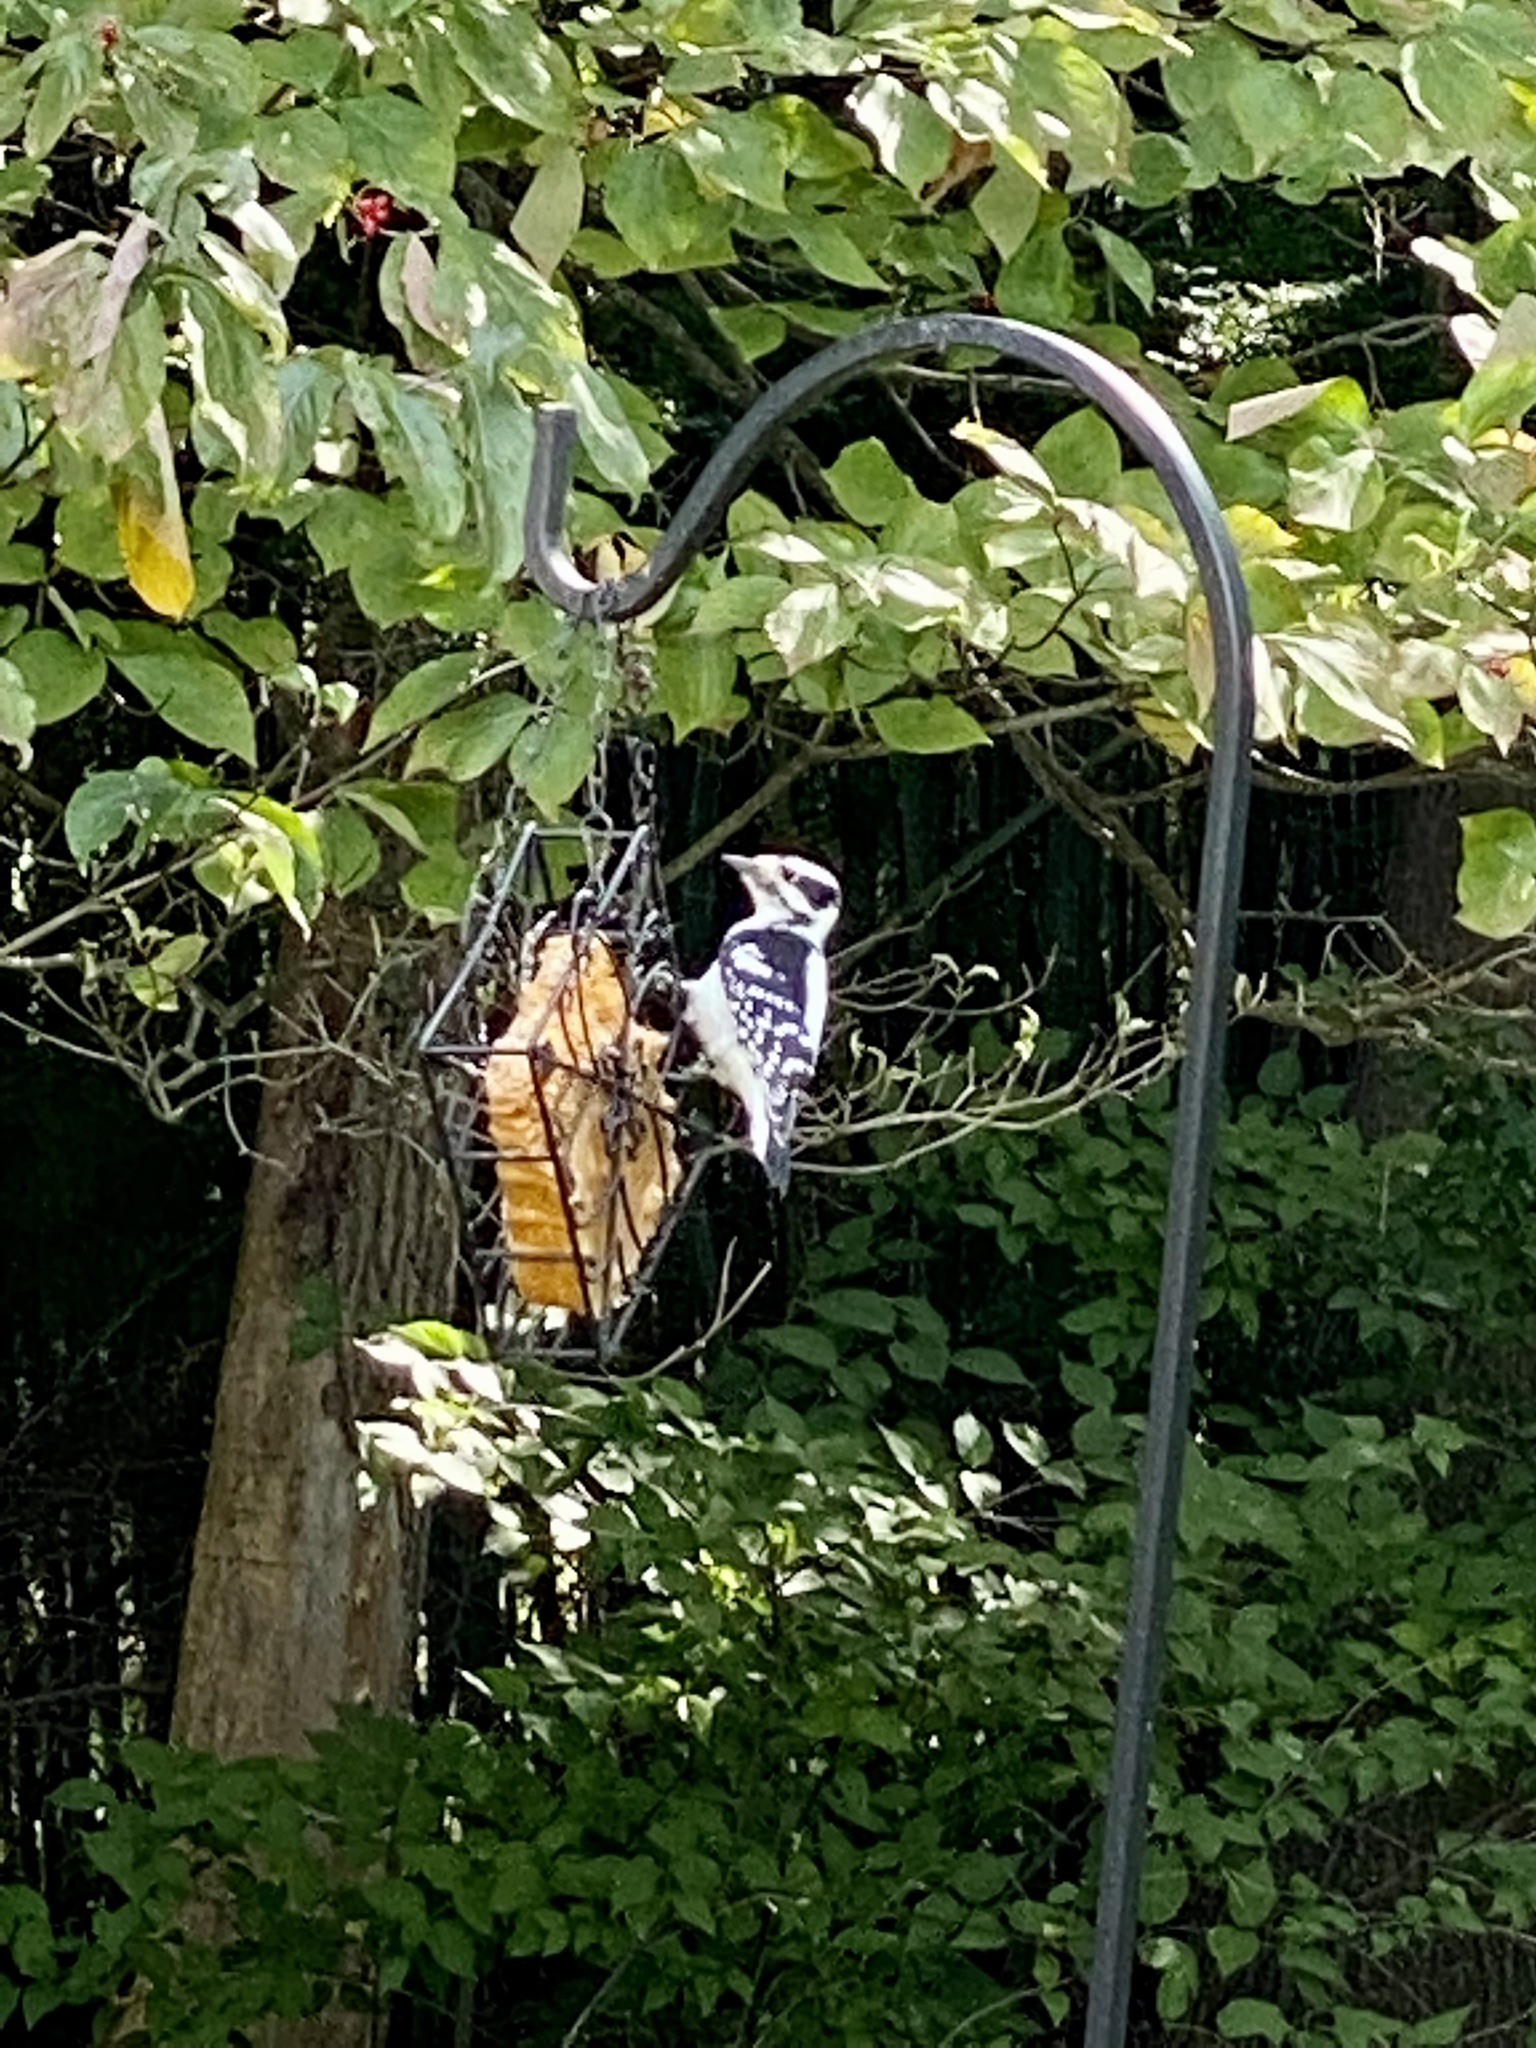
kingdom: Animalia
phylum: Chordata
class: Aves
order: Piciformes
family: Picidae
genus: Dryobates
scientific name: Dryobates pubescens
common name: Downy woodpecker
